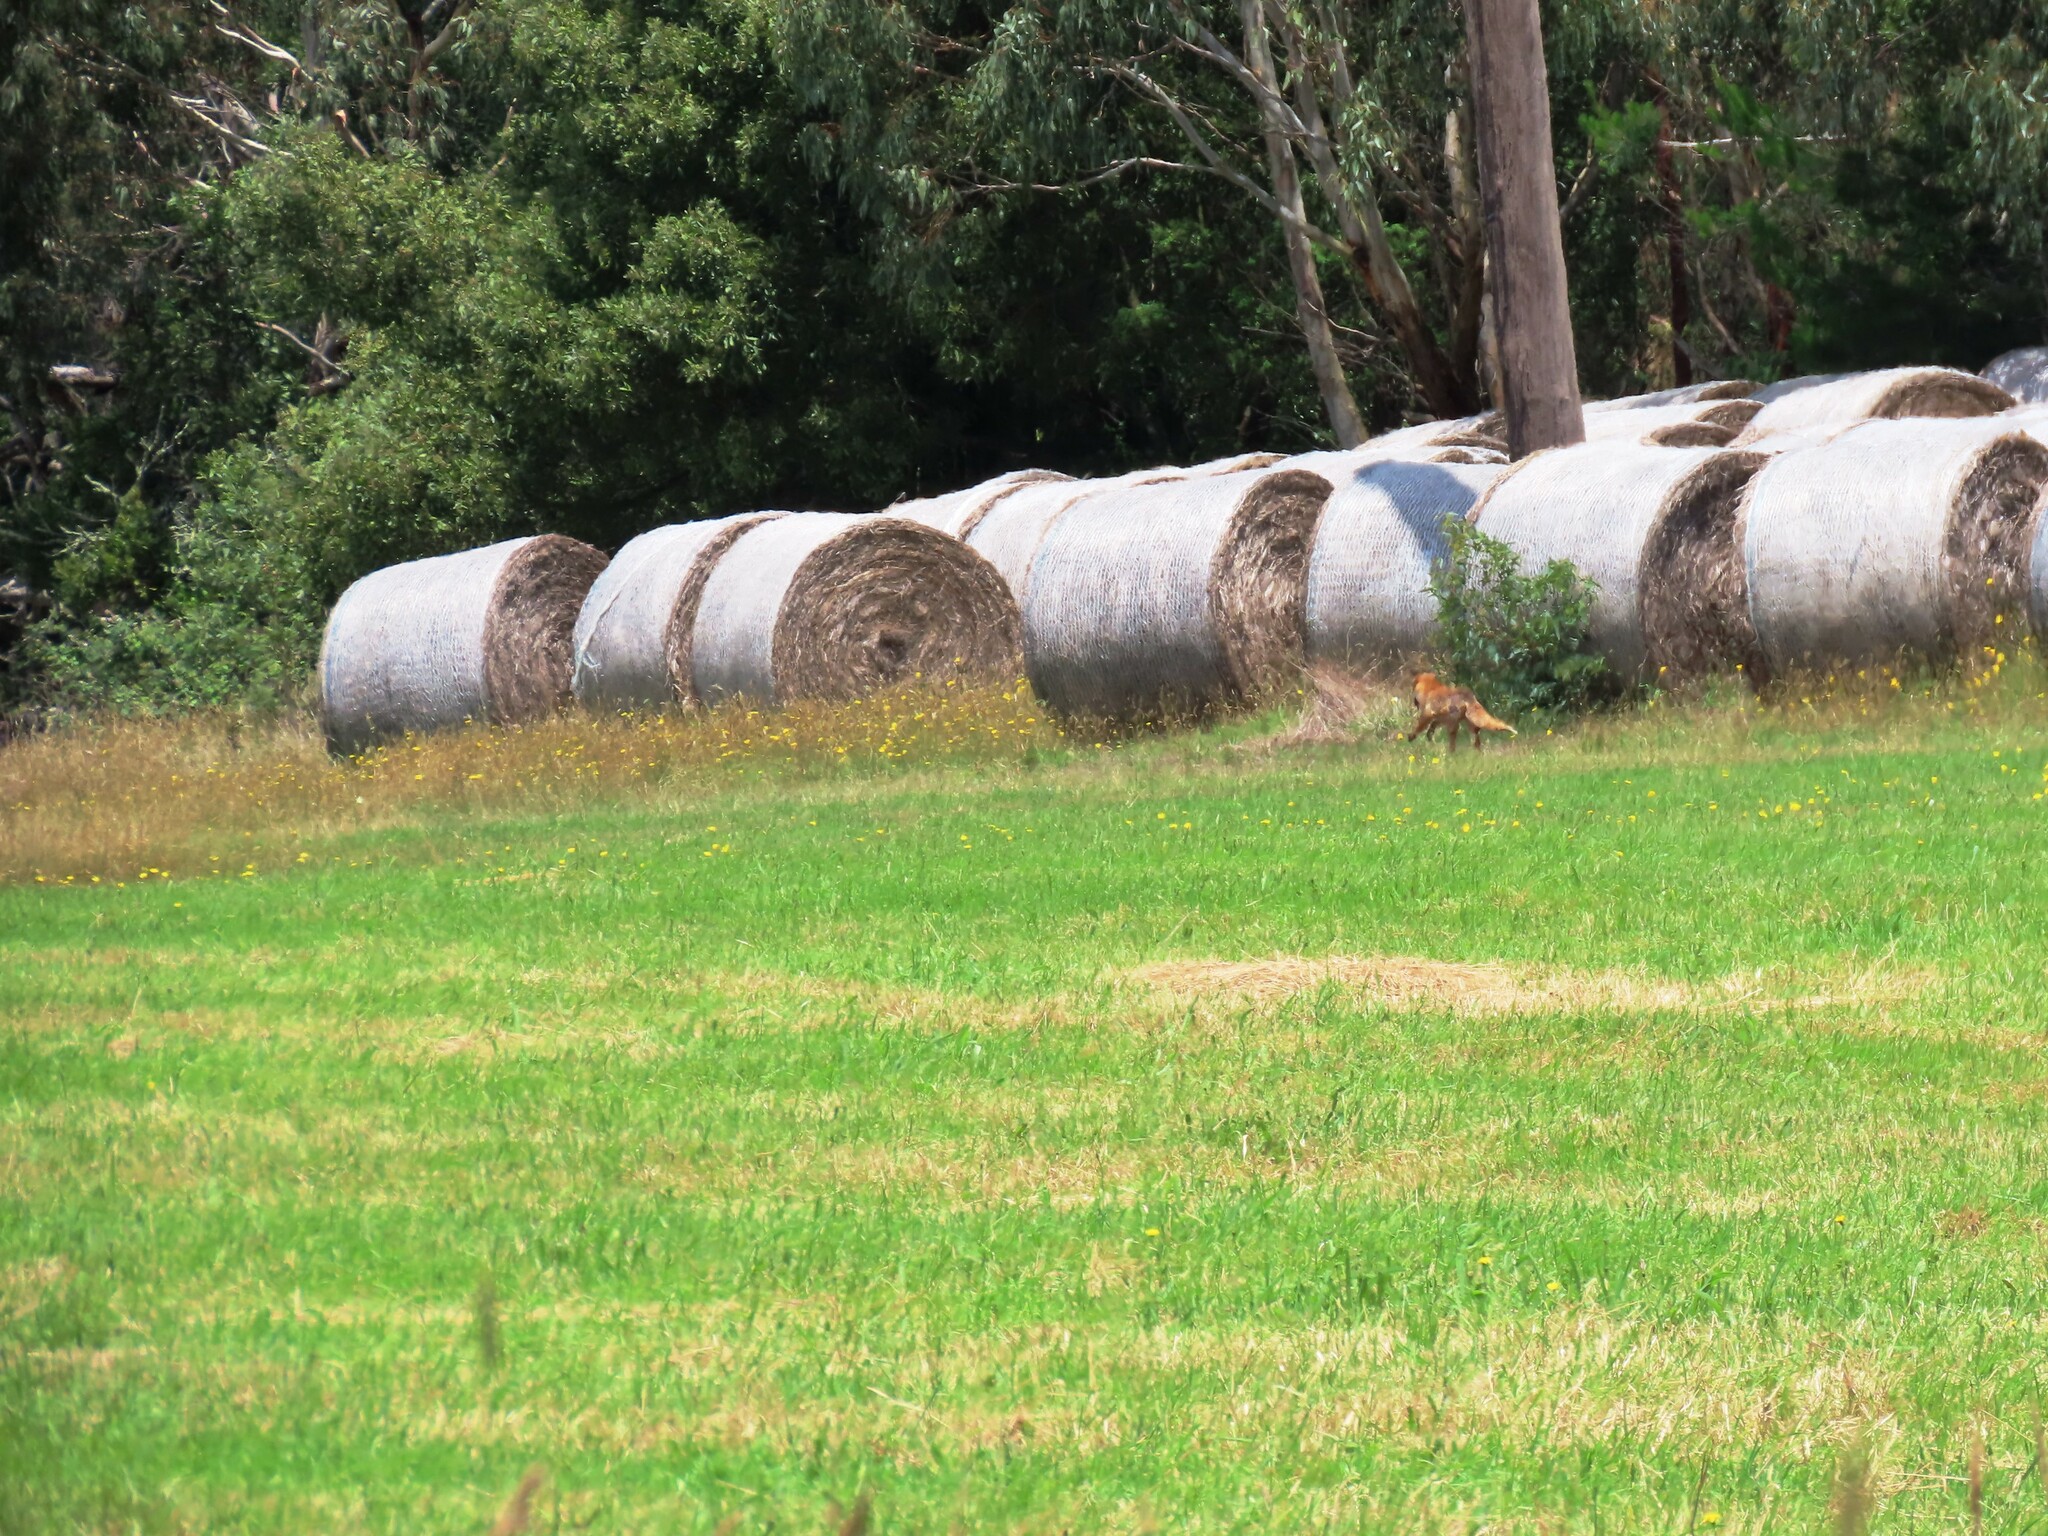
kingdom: Animalia
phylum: Chordata
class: Mammalia
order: Carnivora
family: Canidae
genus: Vulpes
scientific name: Vulpes vulpes
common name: Red fox
